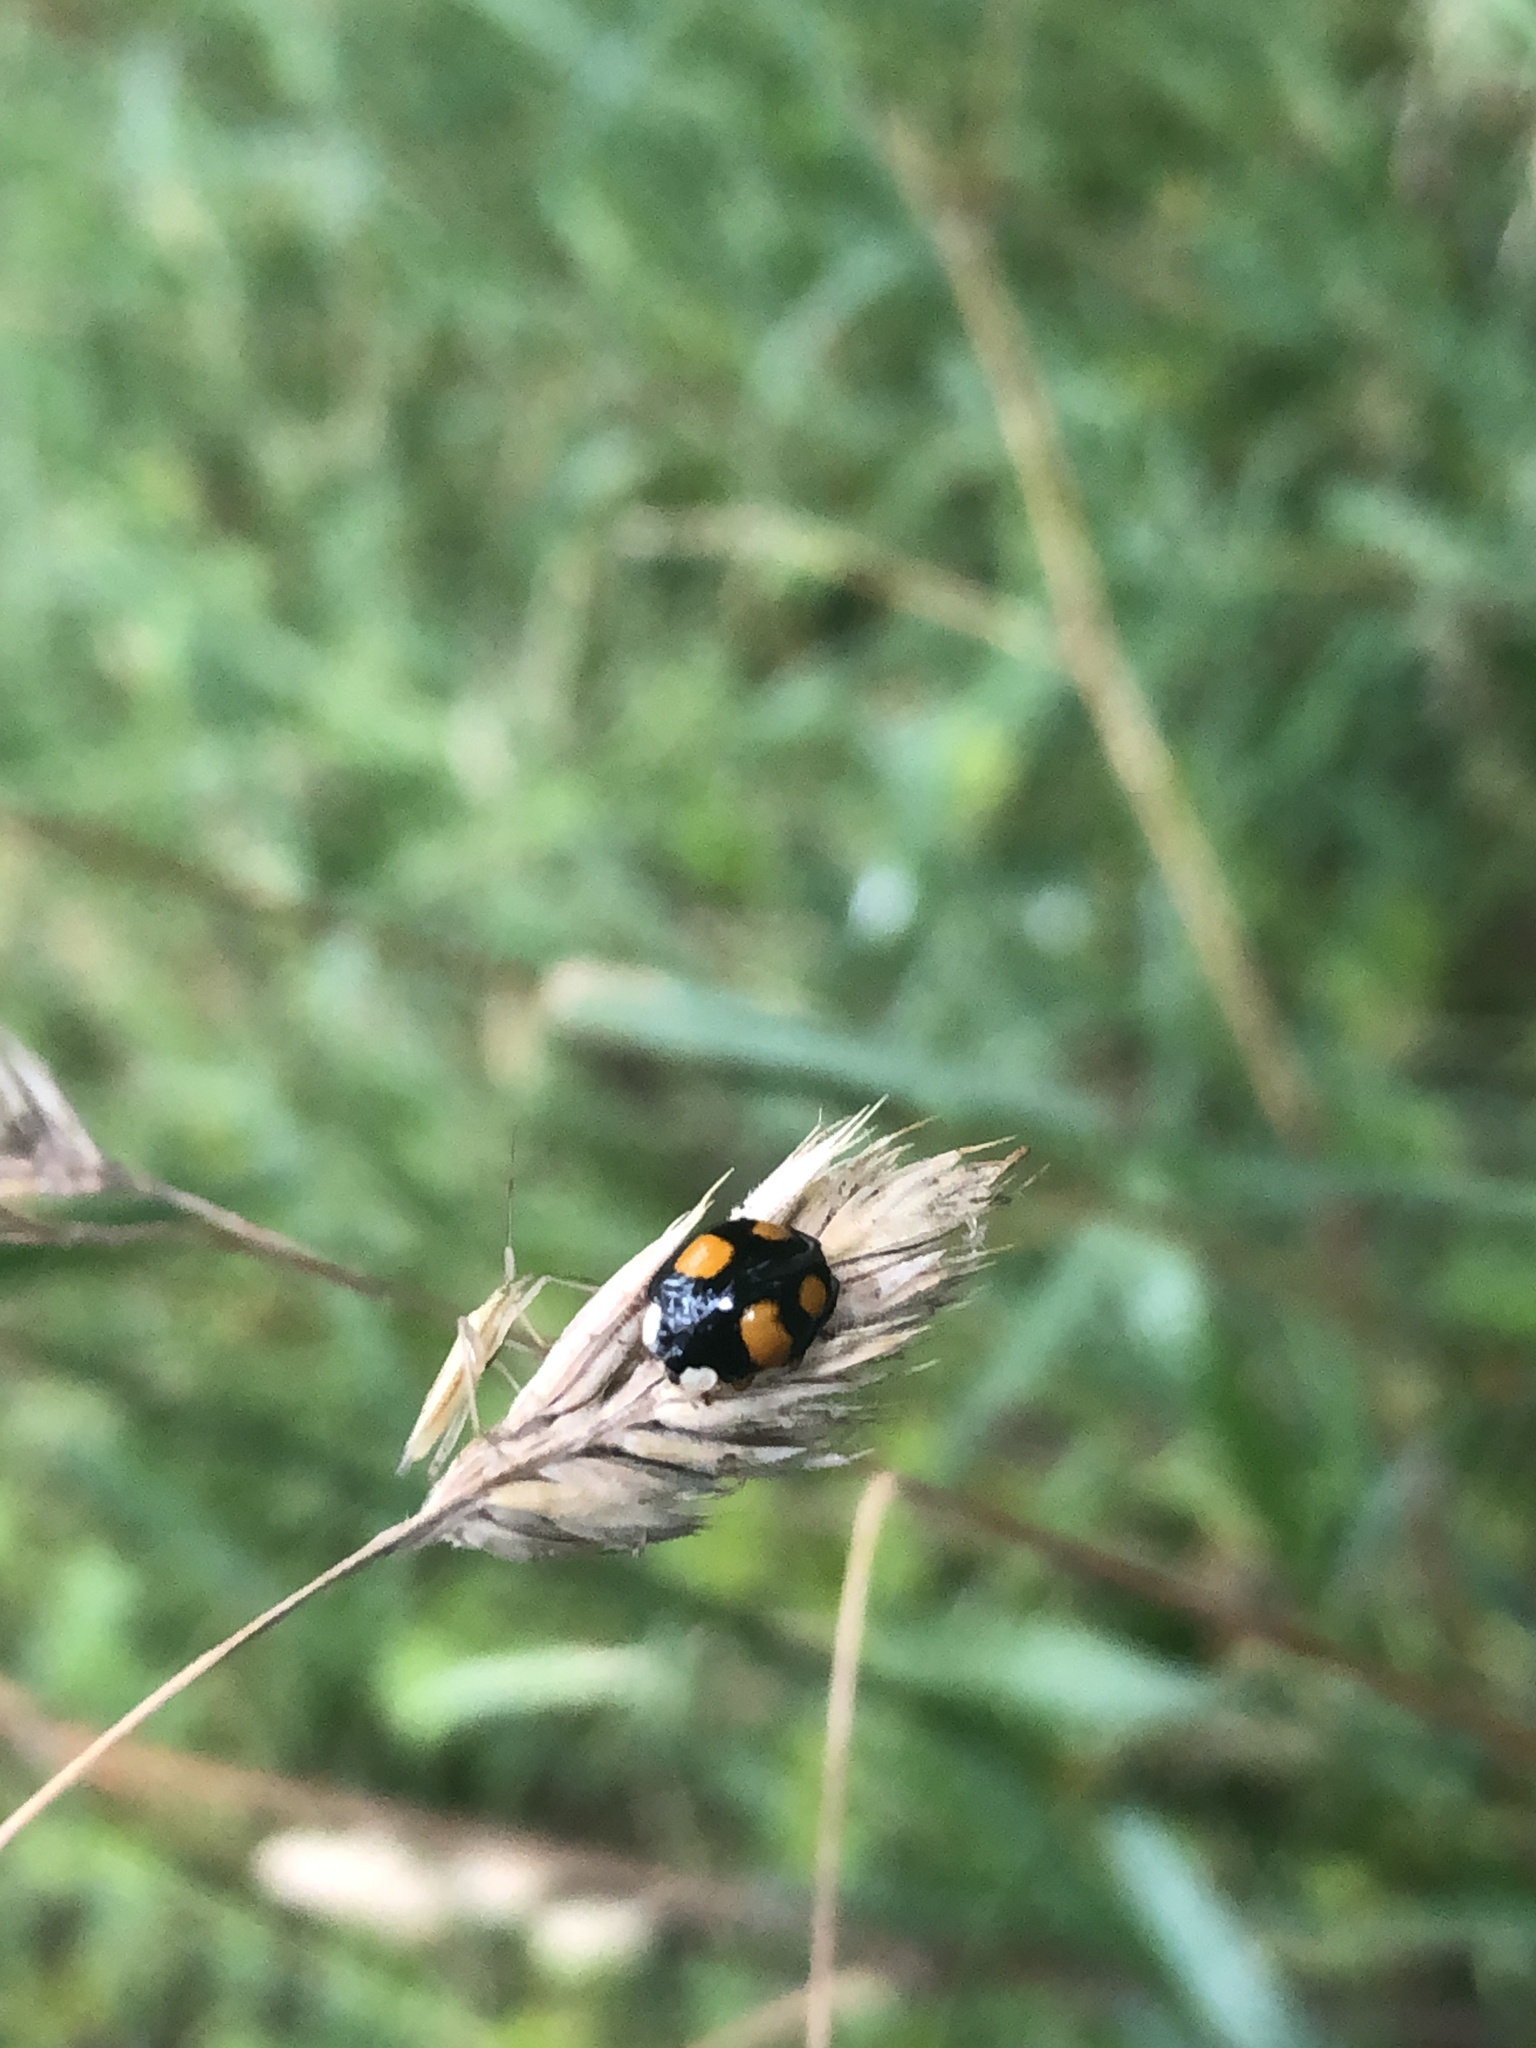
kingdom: Animalia
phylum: Arthropoda
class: Insecta
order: Coleoptera
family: Coccinellidae
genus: Harmonia
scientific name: Harmonia axyridis
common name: Harlequin ladybird
